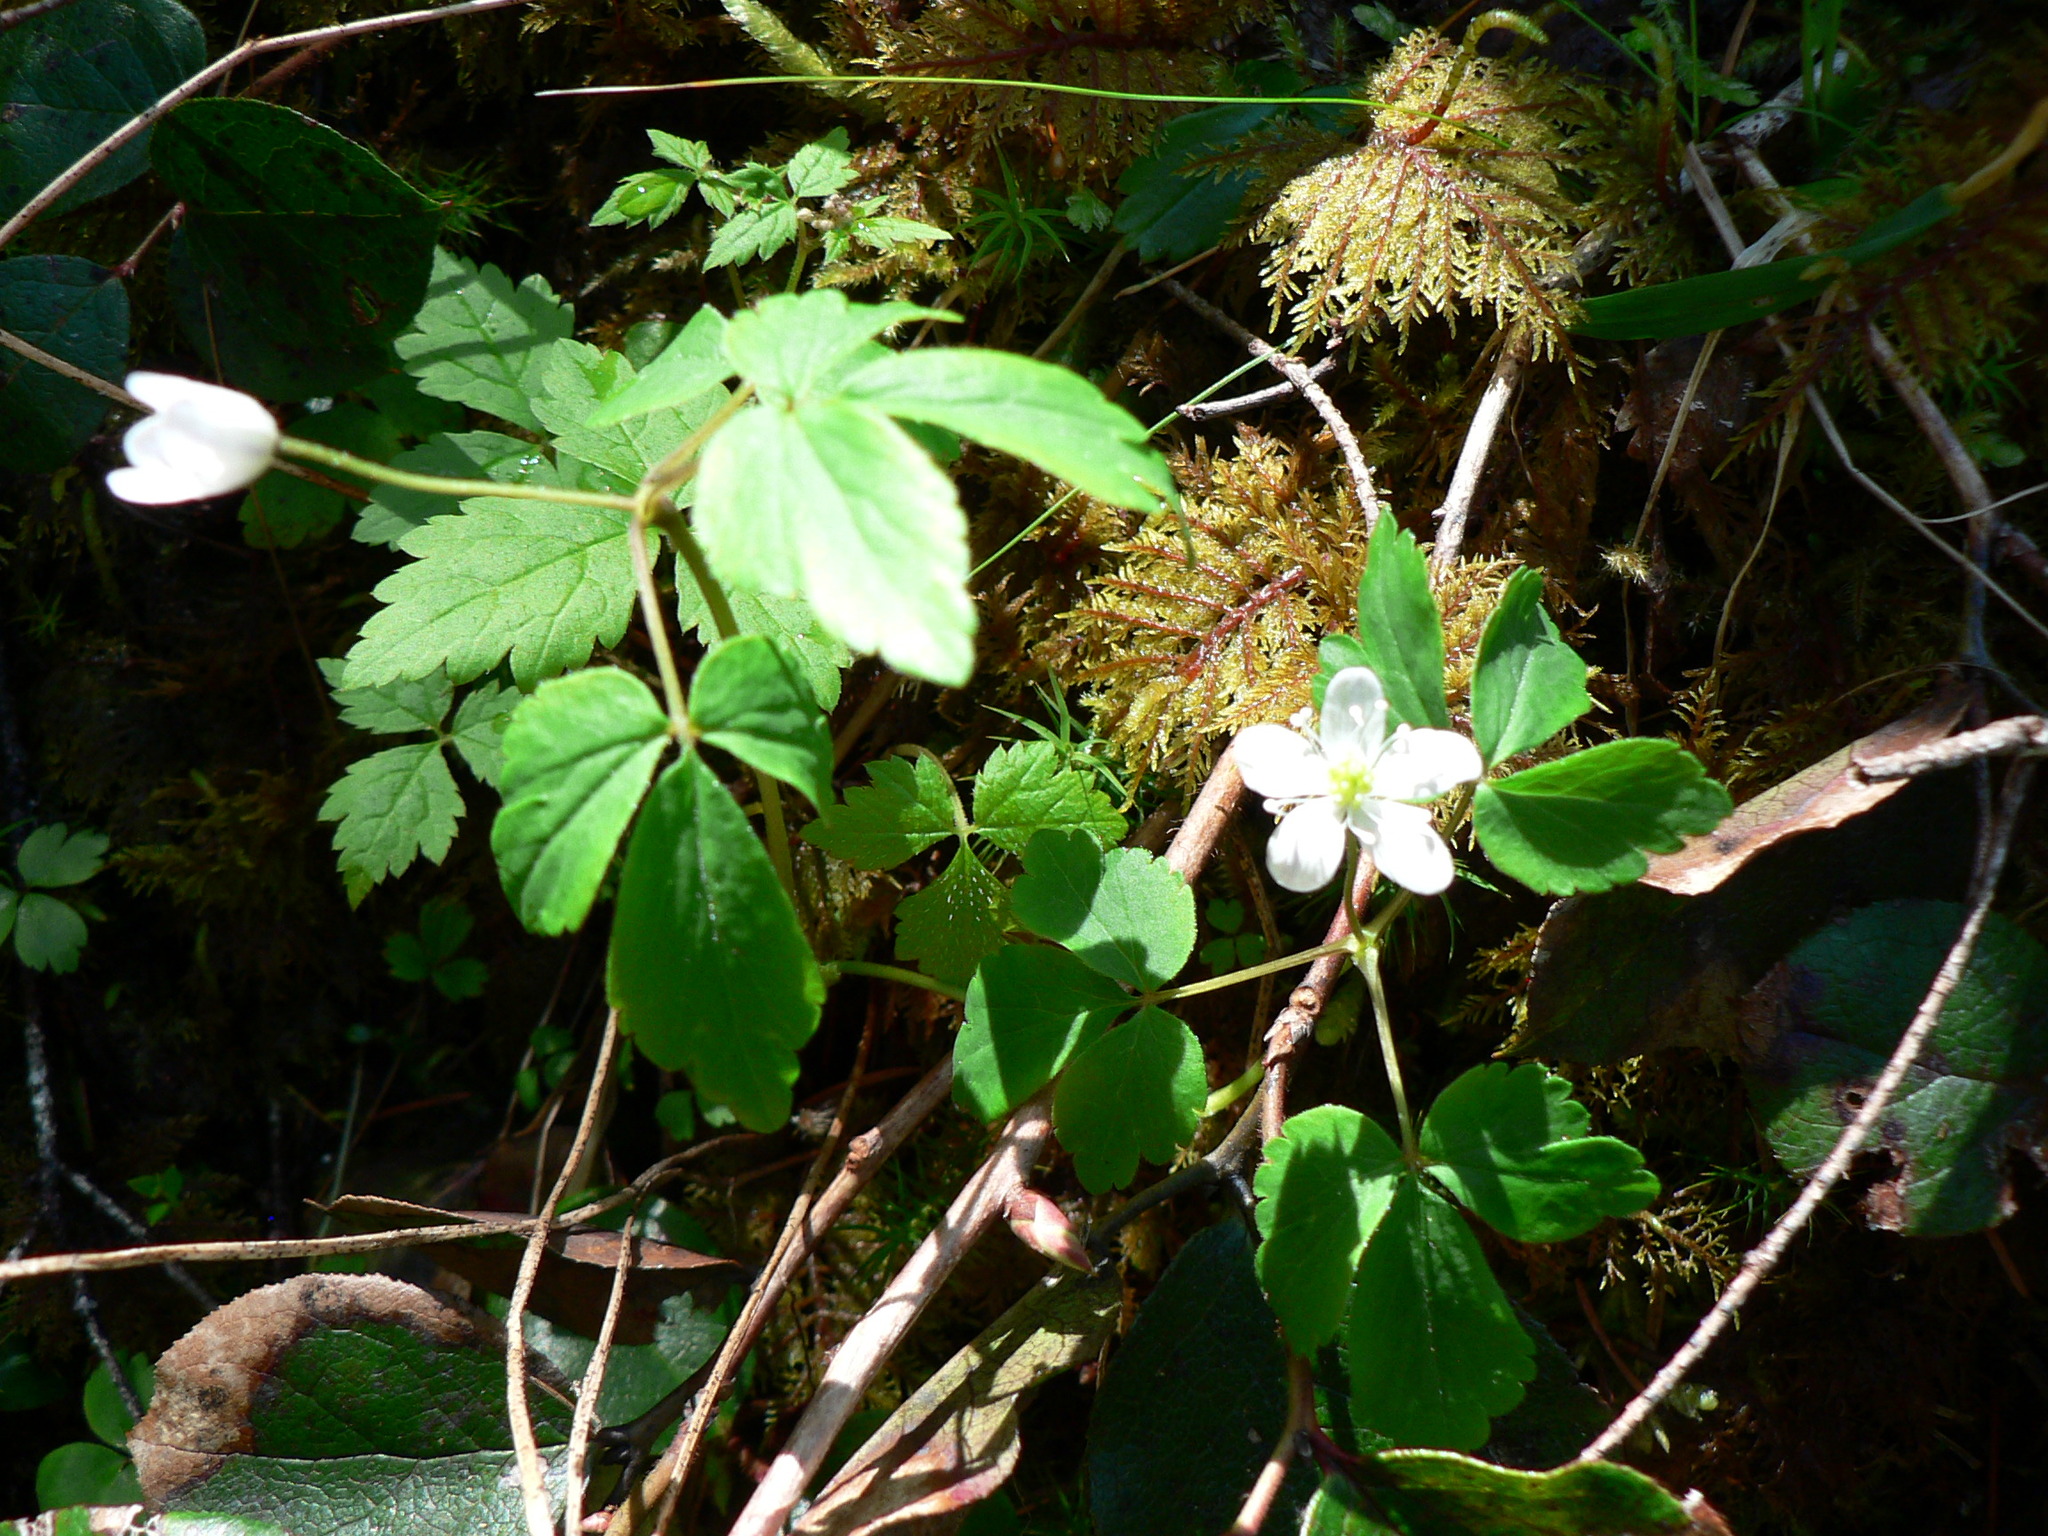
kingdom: Plantae
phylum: Tracheophyta
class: Magnoliopsida
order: Ranunculales
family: Ranunculaceae
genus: Anemone
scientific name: Anemone
